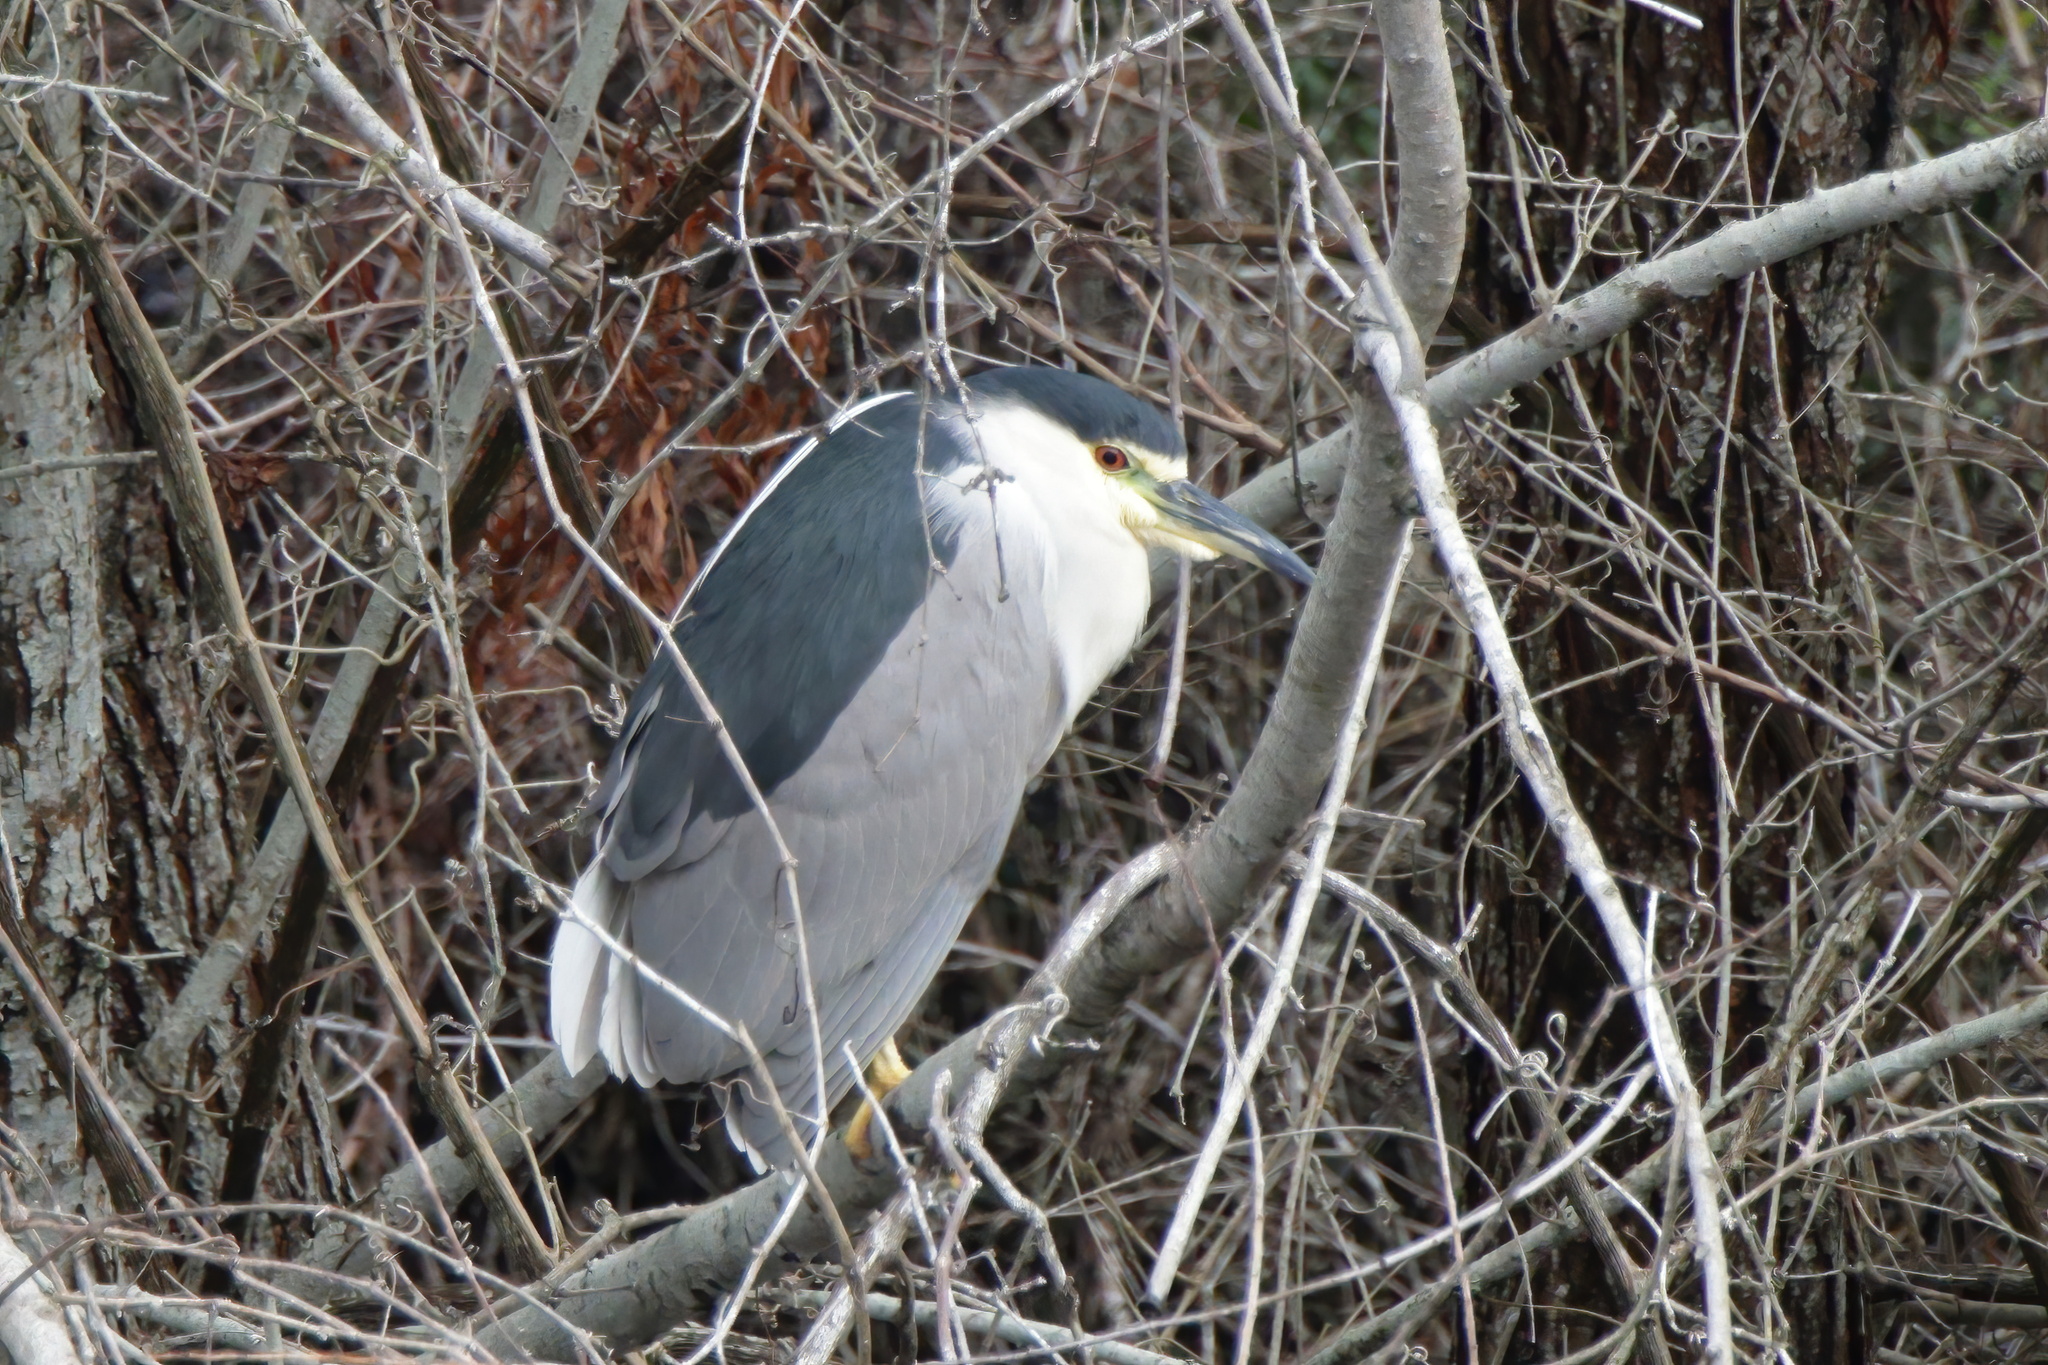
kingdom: Animalia
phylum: Chordata
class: Aves
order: Pelecaniformes
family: Ardeidae
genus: Nycticorax
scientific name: Nycticorax nycticorax
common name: Black-crowned night heron
